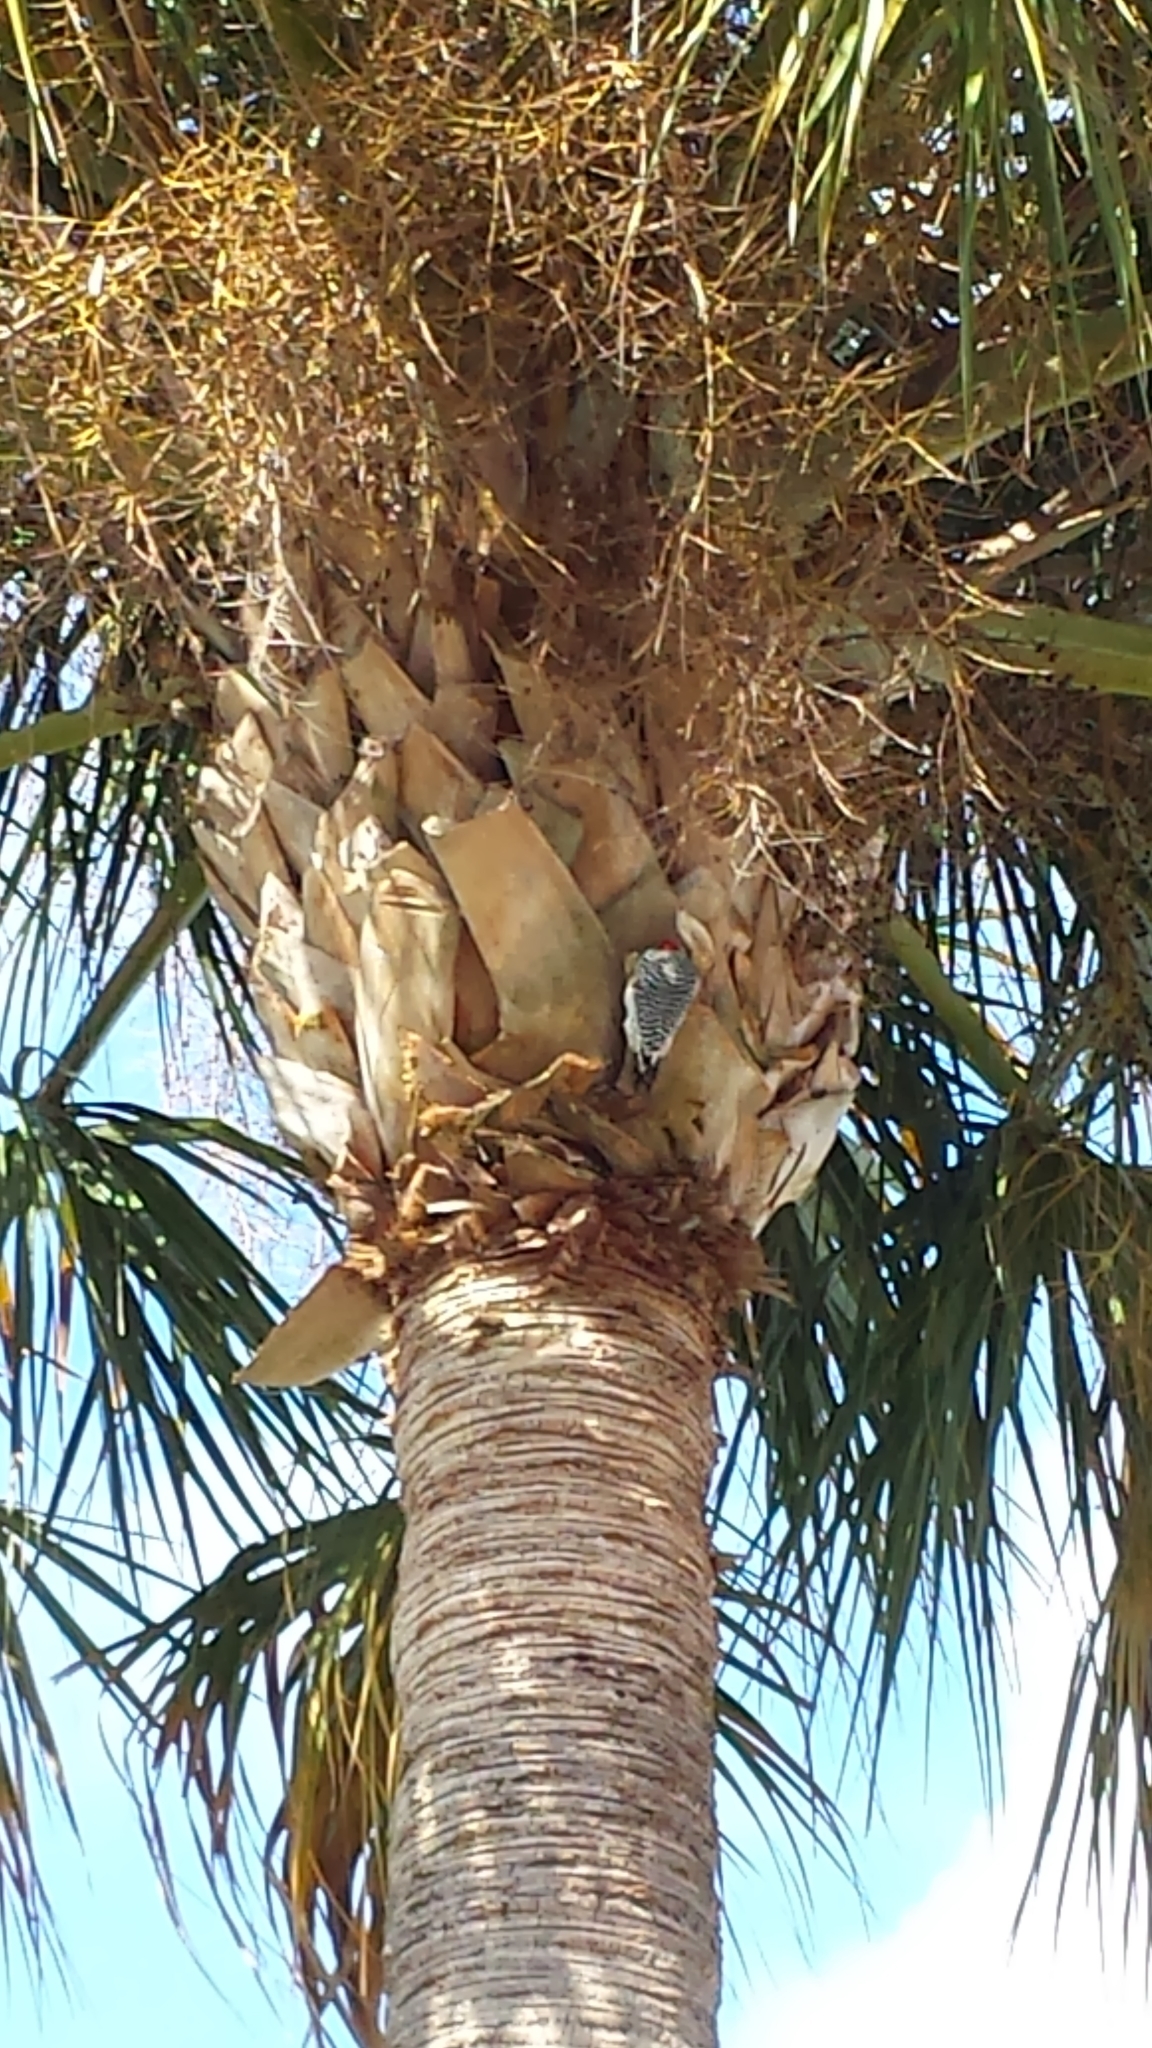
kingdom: Animalia
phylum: Chordata
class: Aves
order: Piciformes
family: Picidae
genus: Melanerpes
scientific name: Melanerpes carolinus
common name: Red-bellied woodpecker
